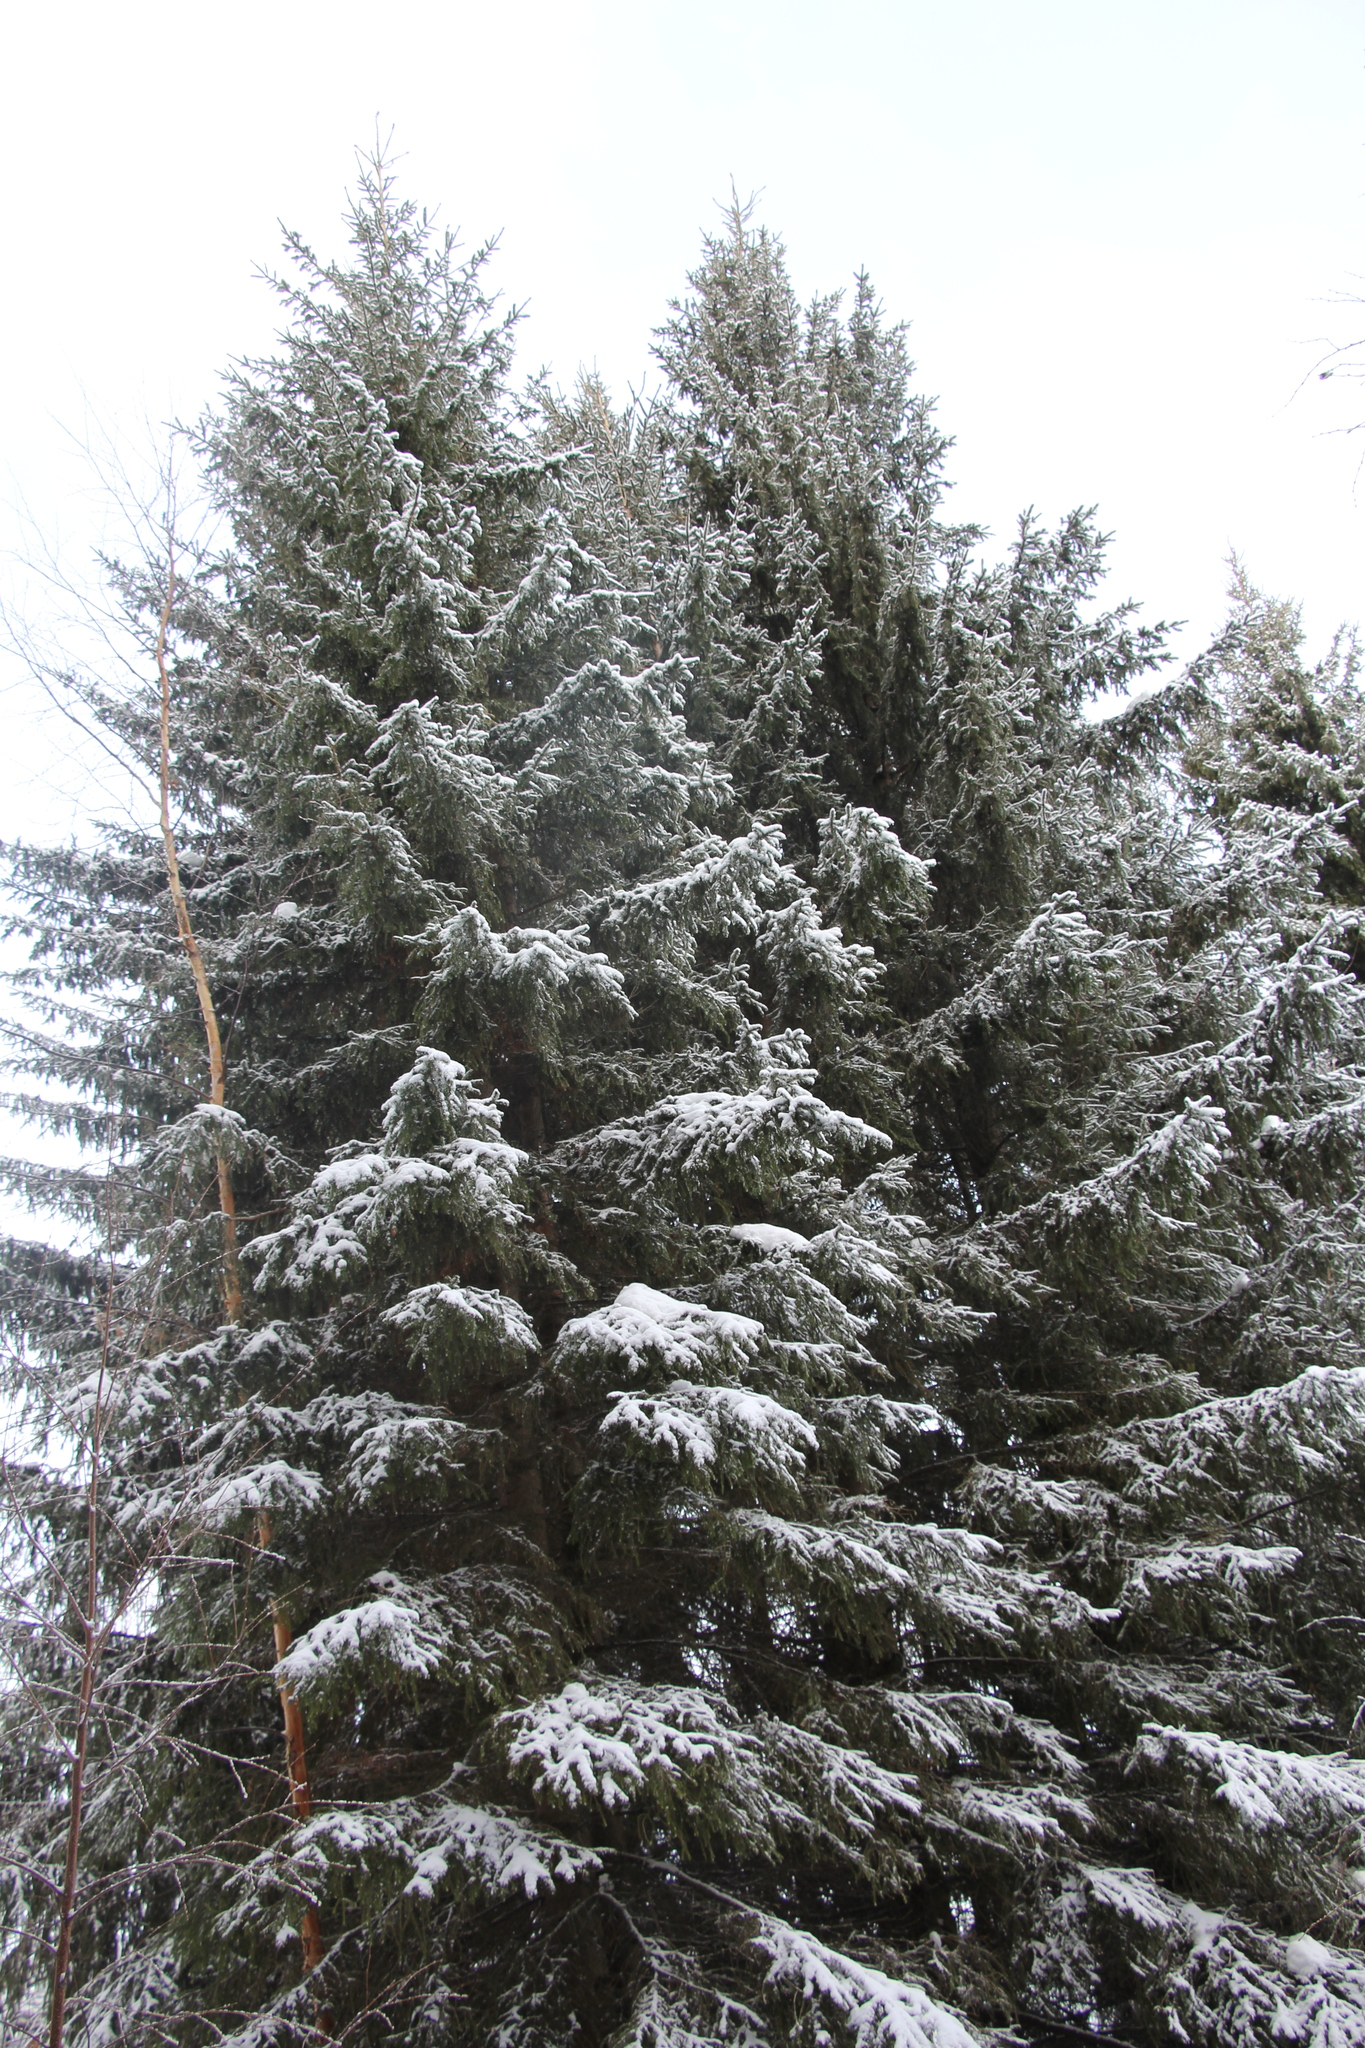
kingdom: Plantae
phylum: Tracheophyta
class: Pinopsida
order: Pinales
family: Pinaceae
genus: Abies
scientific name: Abies sibirica
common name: Siberian fir
